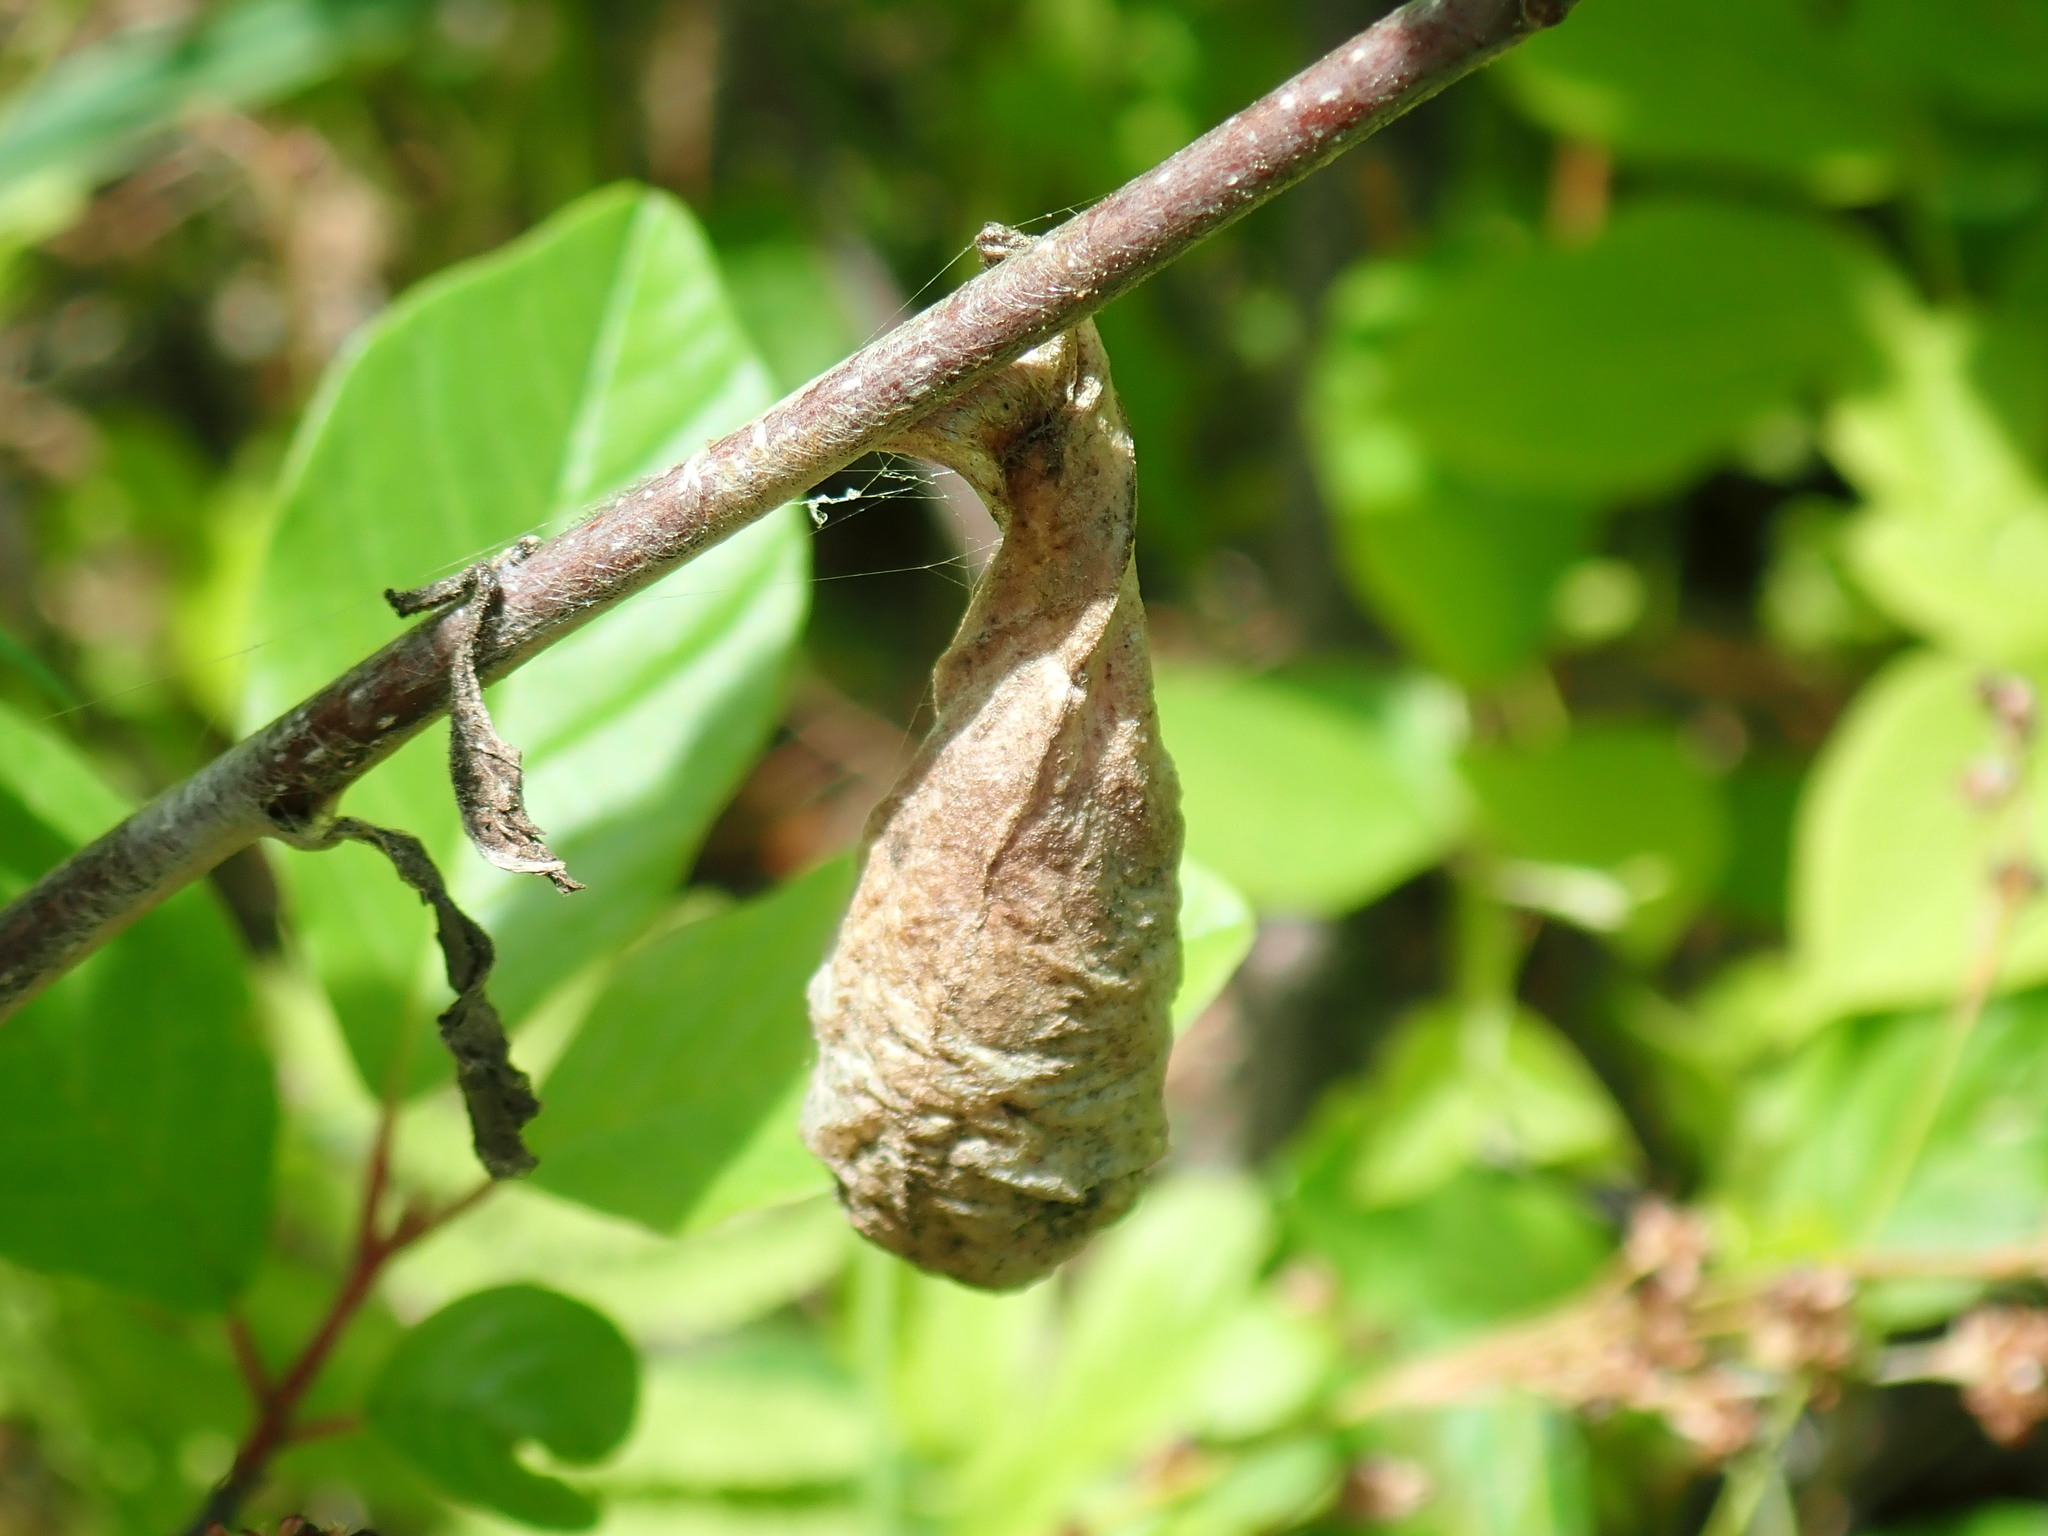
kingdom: Animalia
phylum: Arthropoda
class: Insecta
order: Lepidoptera
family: Saturniidae
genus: Callosamia
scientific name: Callosamia promethea
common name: Promethea silkmoth
